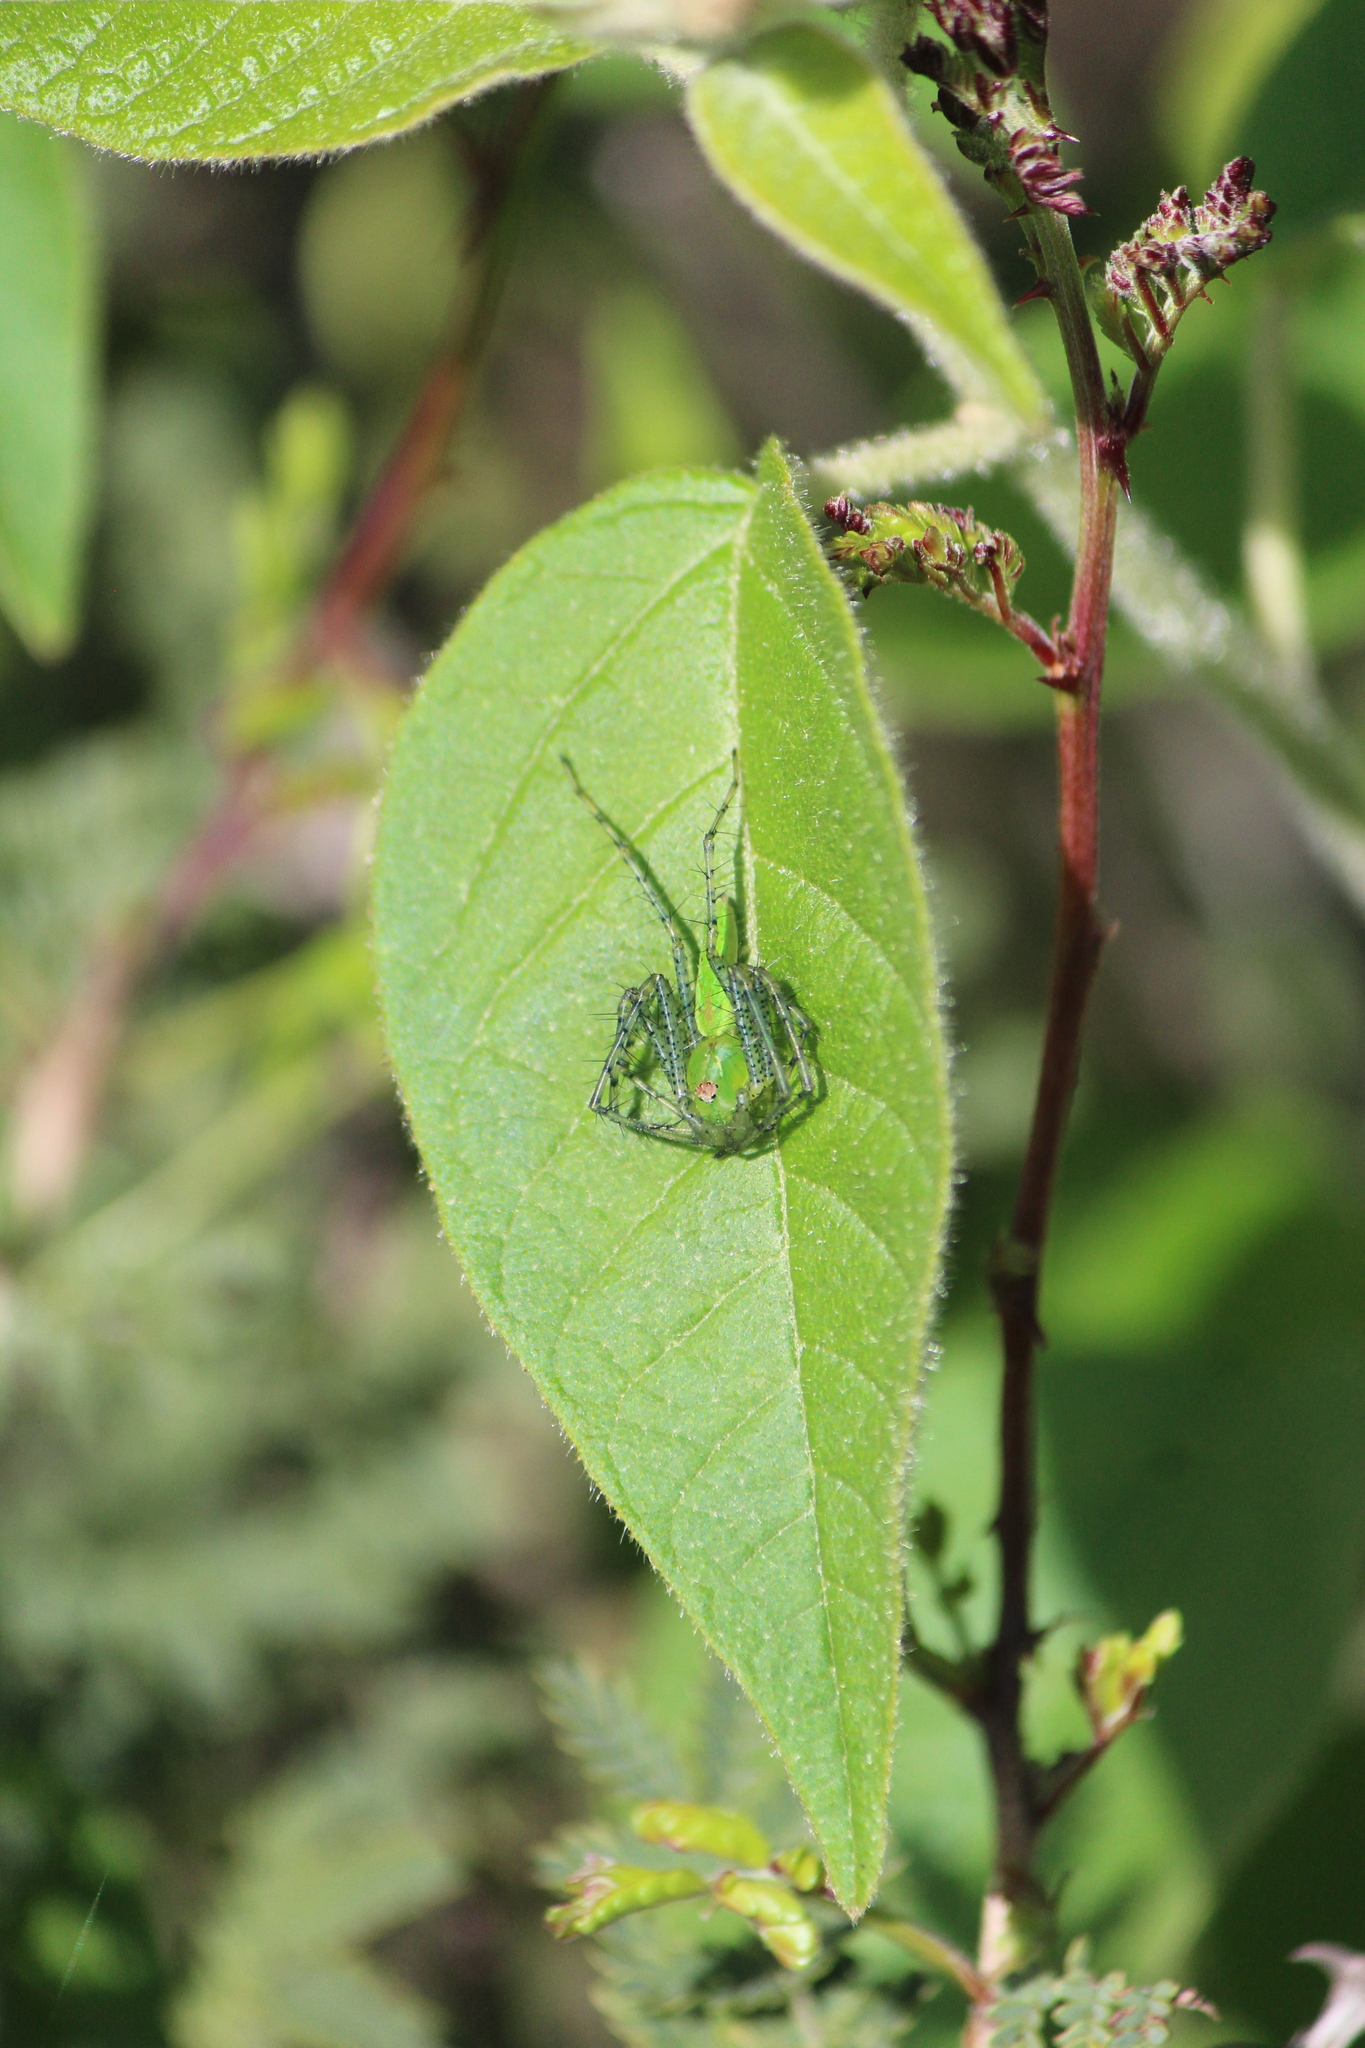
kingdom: Animalia
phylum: Arthropoda
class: Arachnida
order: Araneae
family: Oxyopidae
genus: Peucetia
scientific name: Peucetia viridans
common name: Lynx spiders
